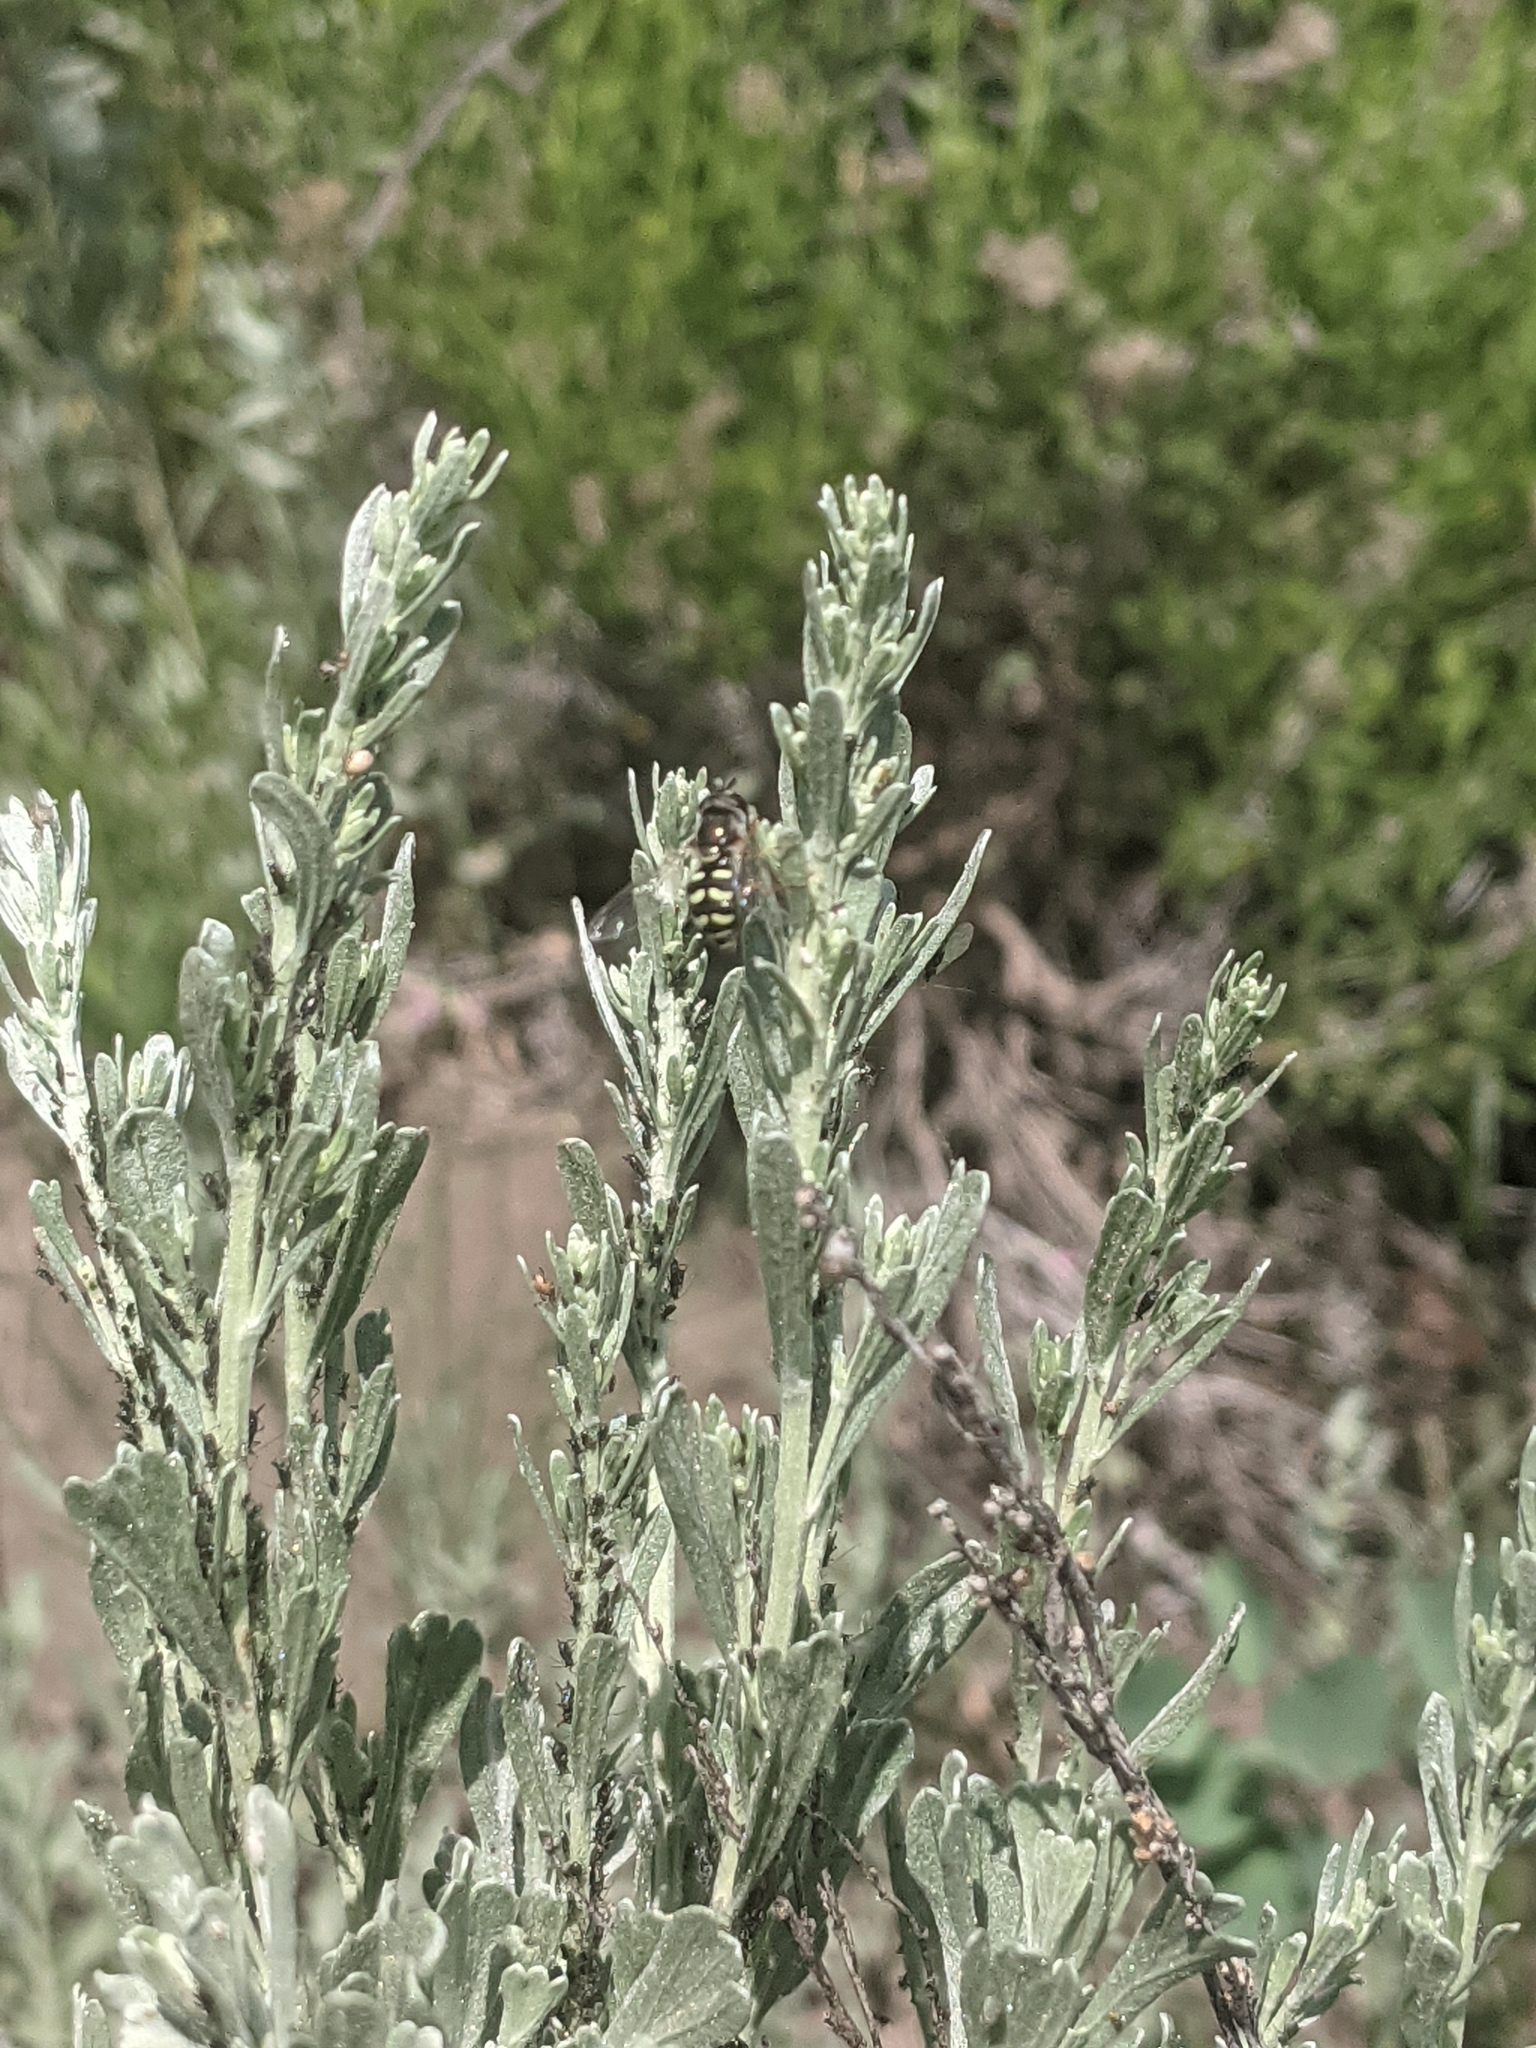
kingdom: Animalia
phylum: Arthropoda
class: Insecta
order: Diptera
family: Syrphidae
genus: Eupeodes
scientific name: Eupeodes volucris
